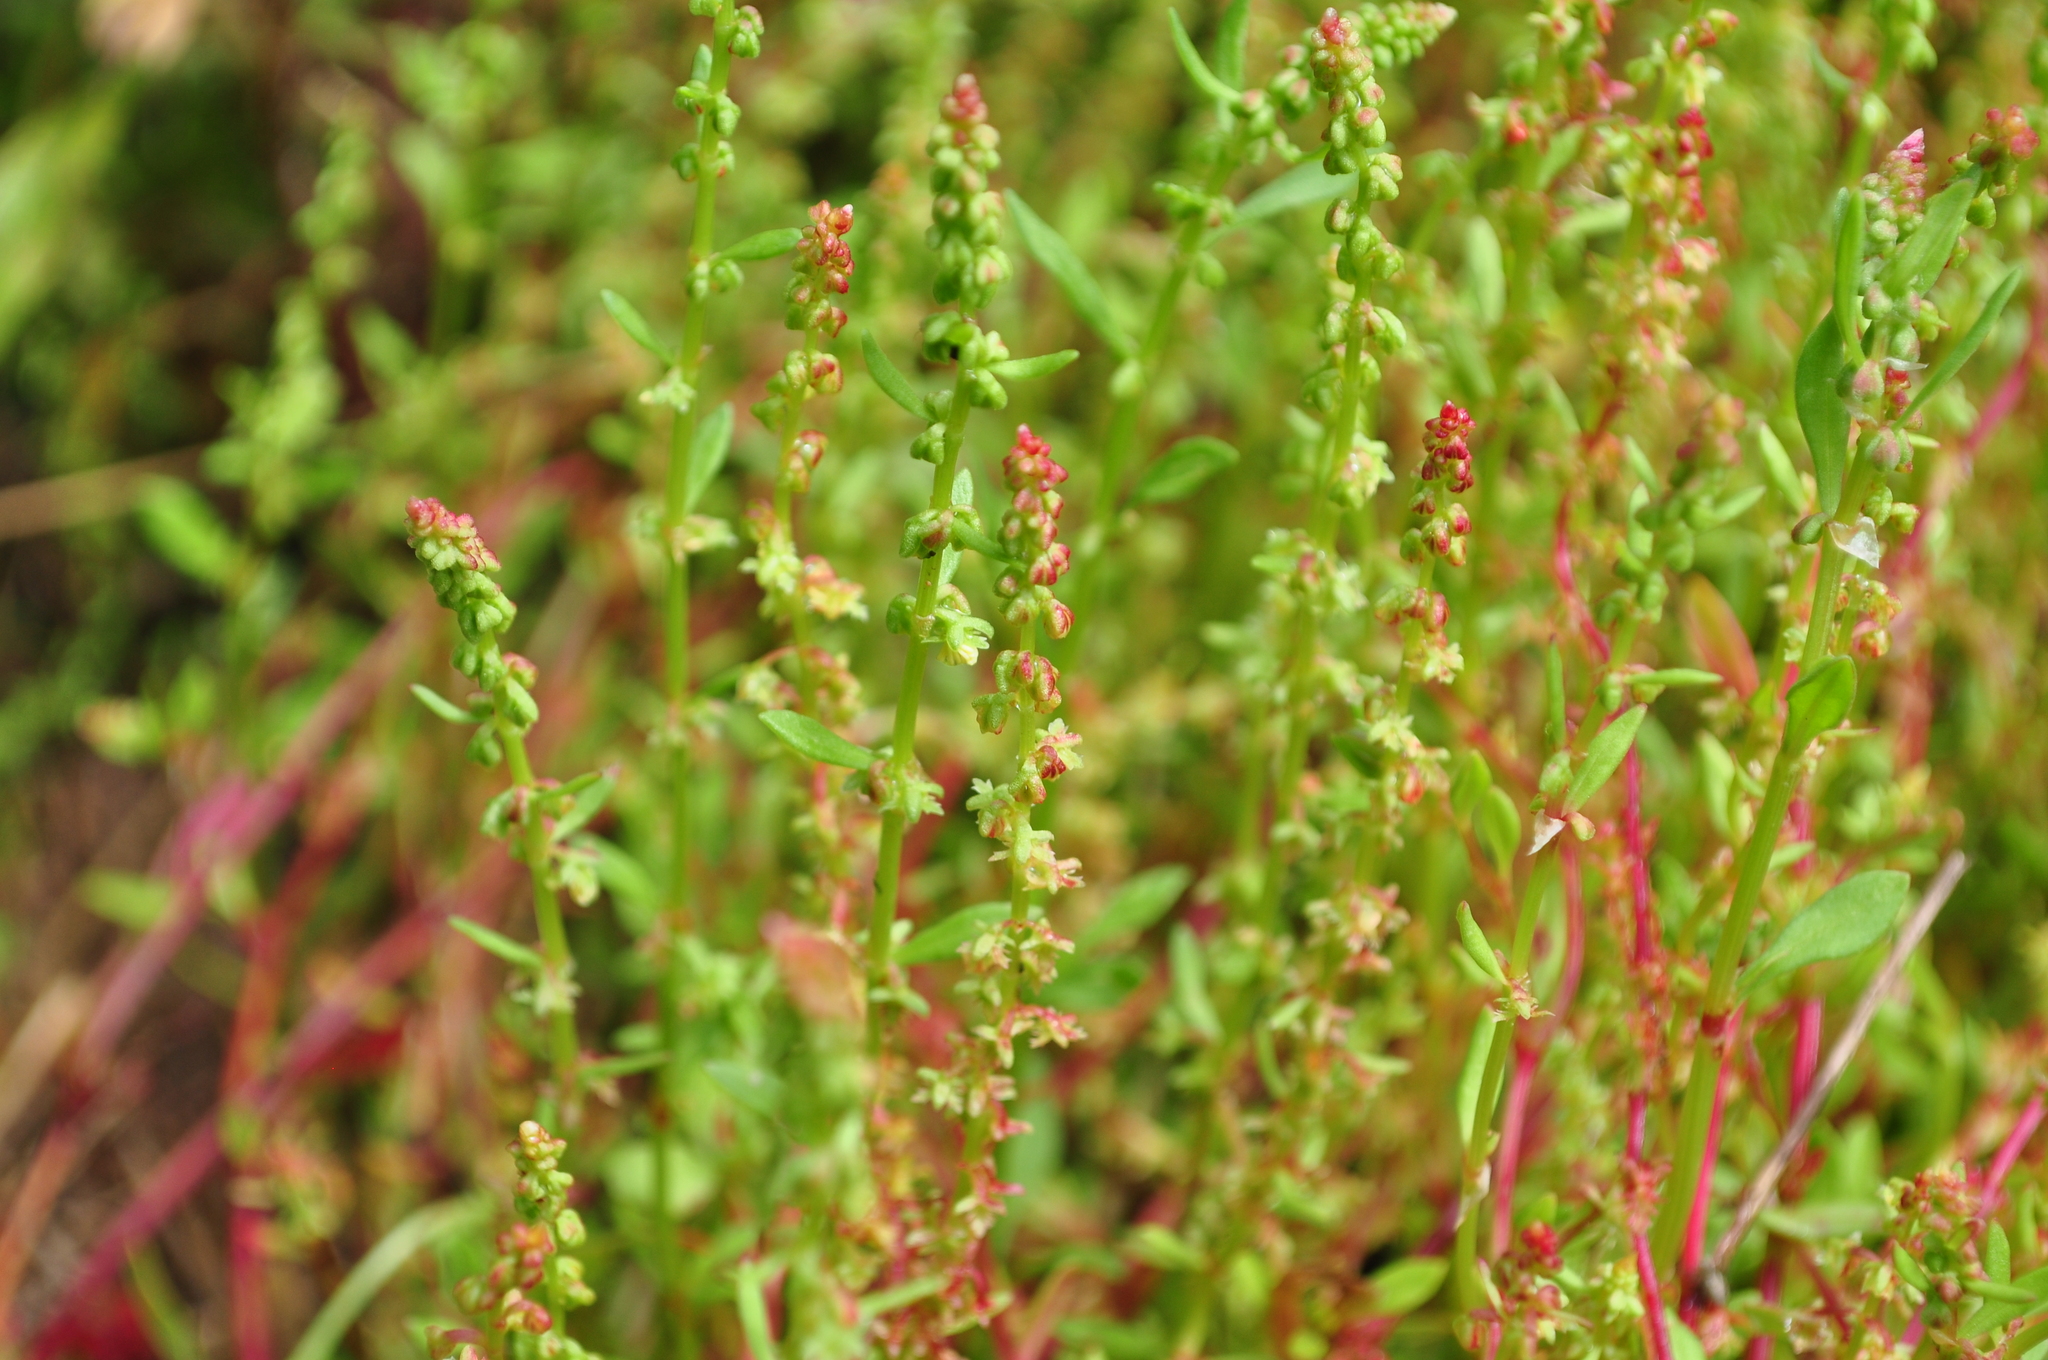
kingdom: Plantae
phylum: Tracheophyta
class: Magnoliopsida
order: Caryophyllales
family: Polygonaceae
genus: Rumex
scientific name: Rumex bucephalophorus
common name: Red dock
